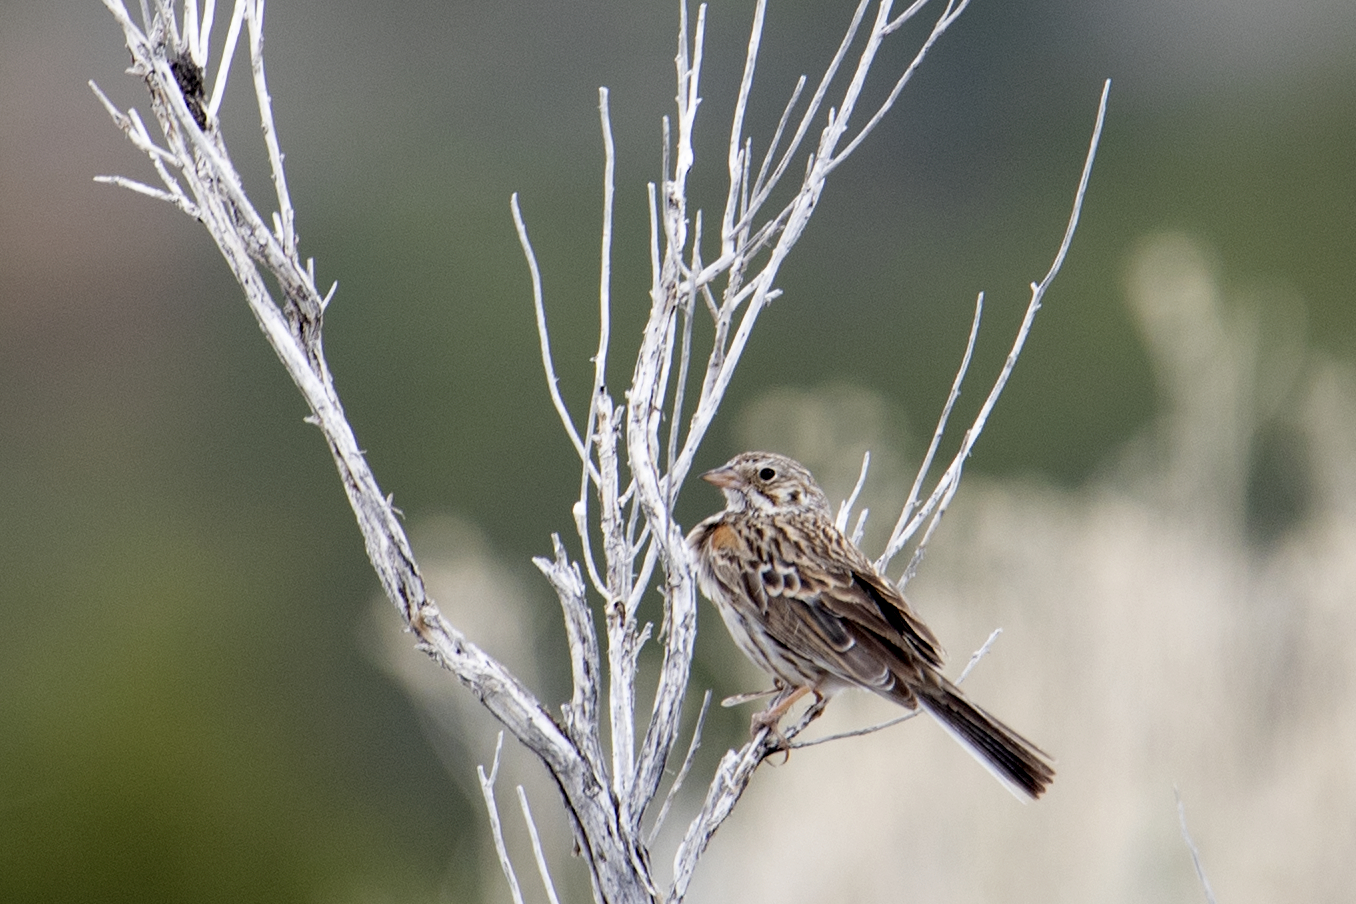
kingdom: Animalia
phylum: Chordata
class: Aves
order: Passeriformes
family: Passerellidae
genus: Pooecetes
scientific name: Pooecetes gramineus
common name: Vesper sparrow
